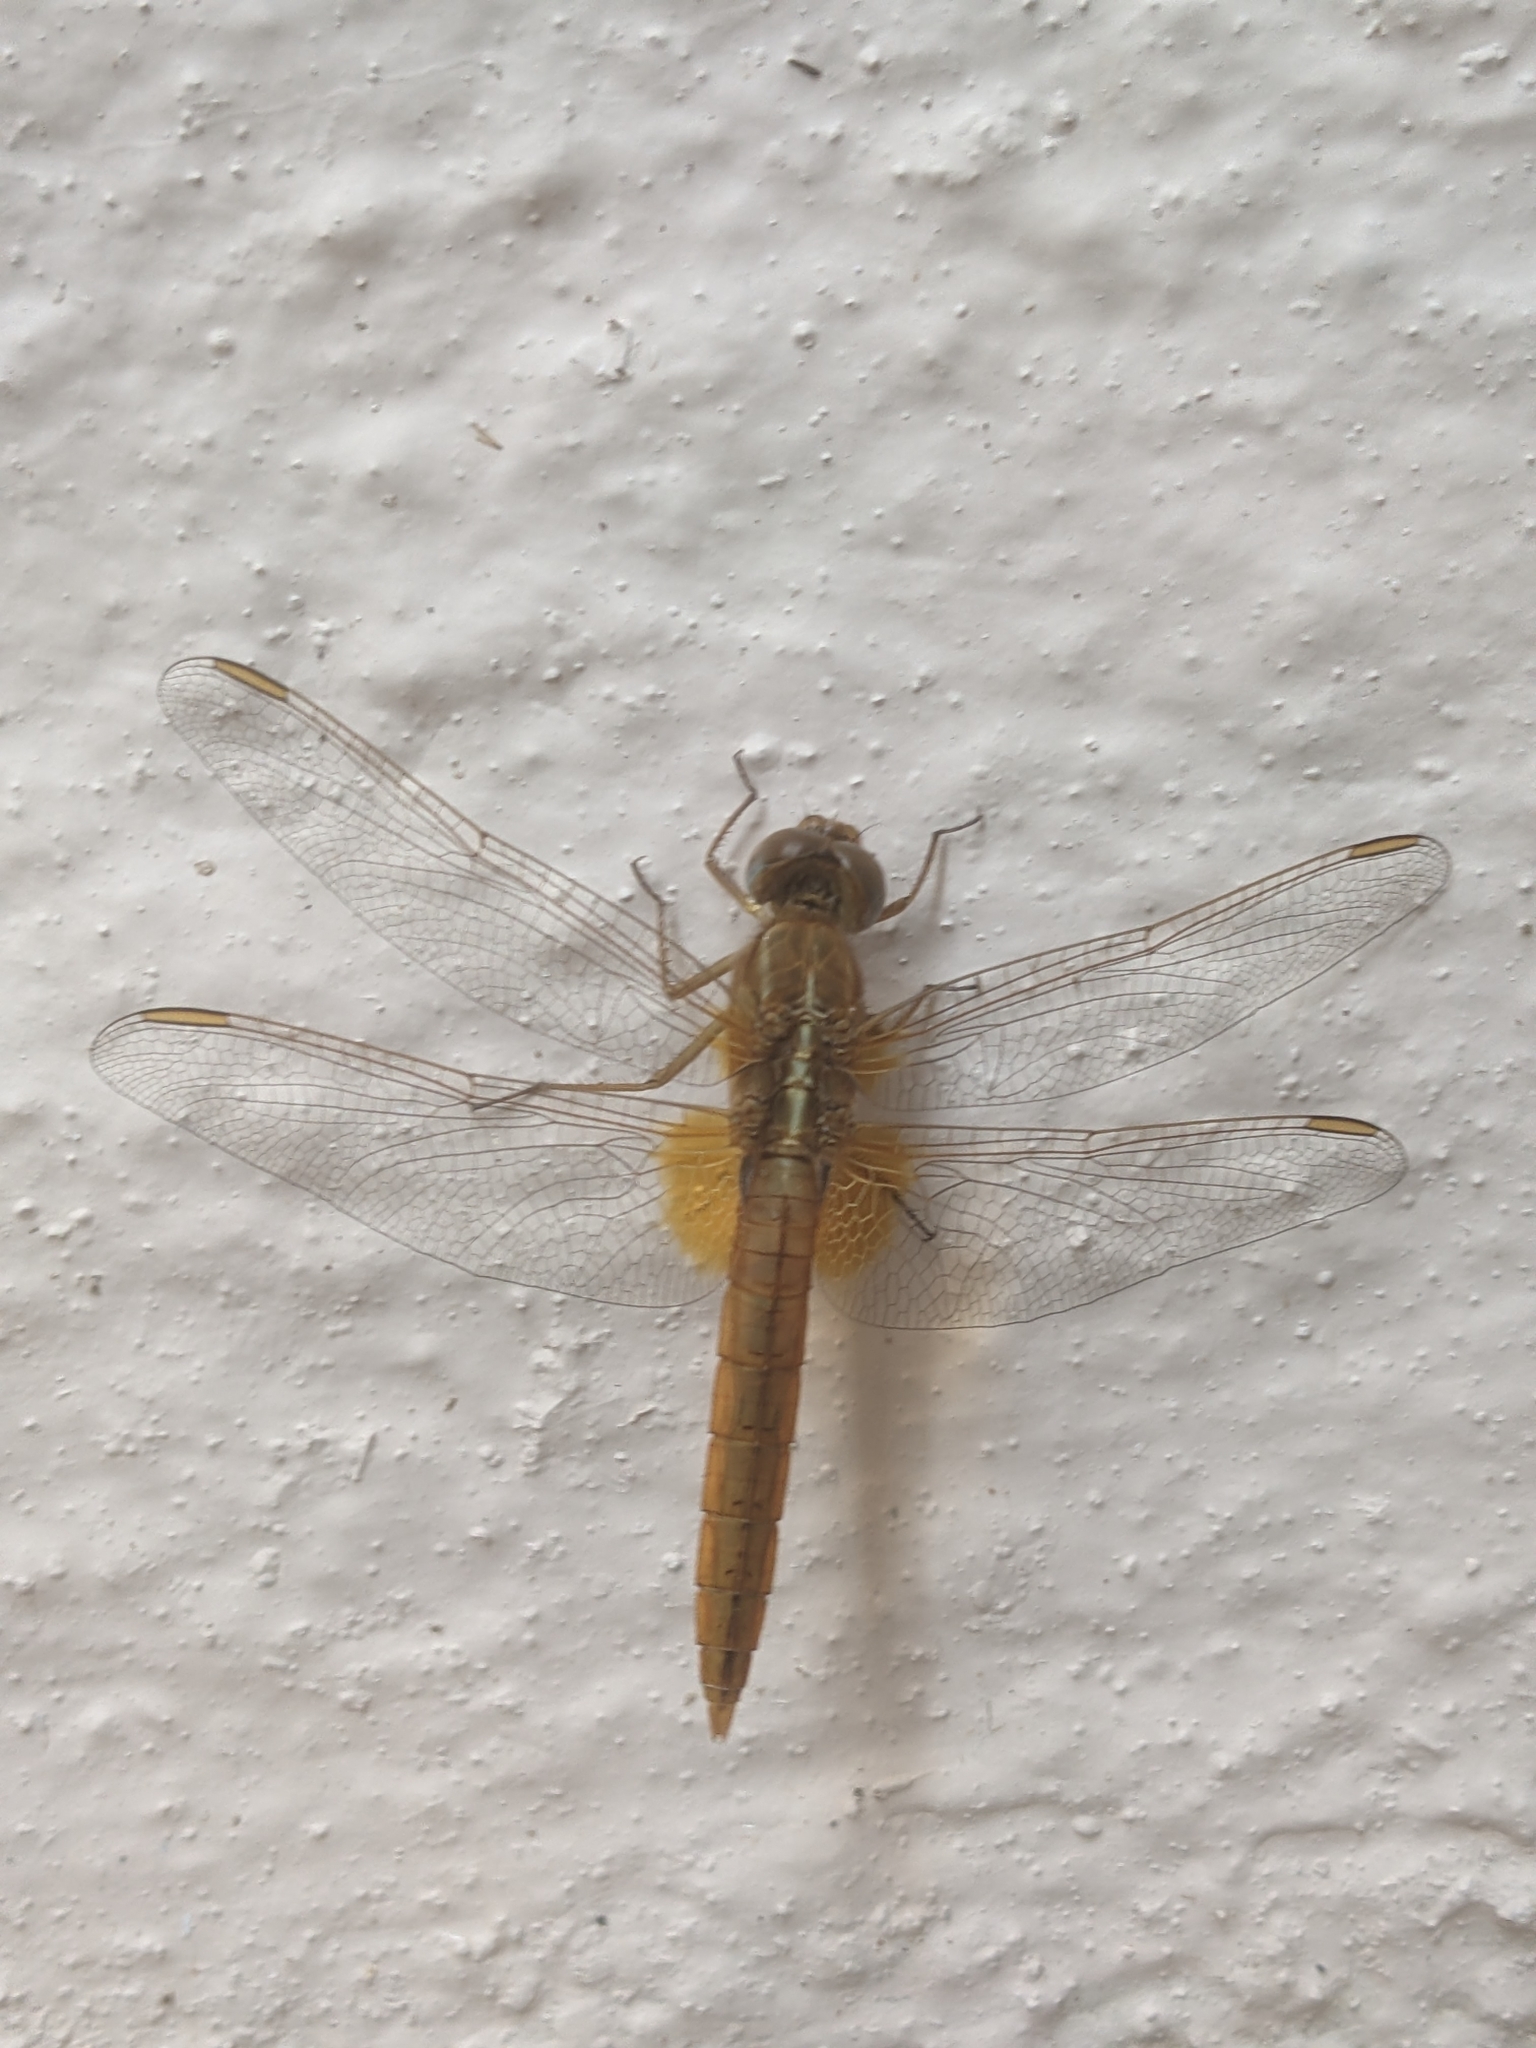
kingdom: Animalia
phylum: Arthropoda
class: Insecta
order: Odonata
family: Libellulidae
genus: Crocothemis
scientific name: Crocothemis erythraea
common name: Scarlet dragonfly
